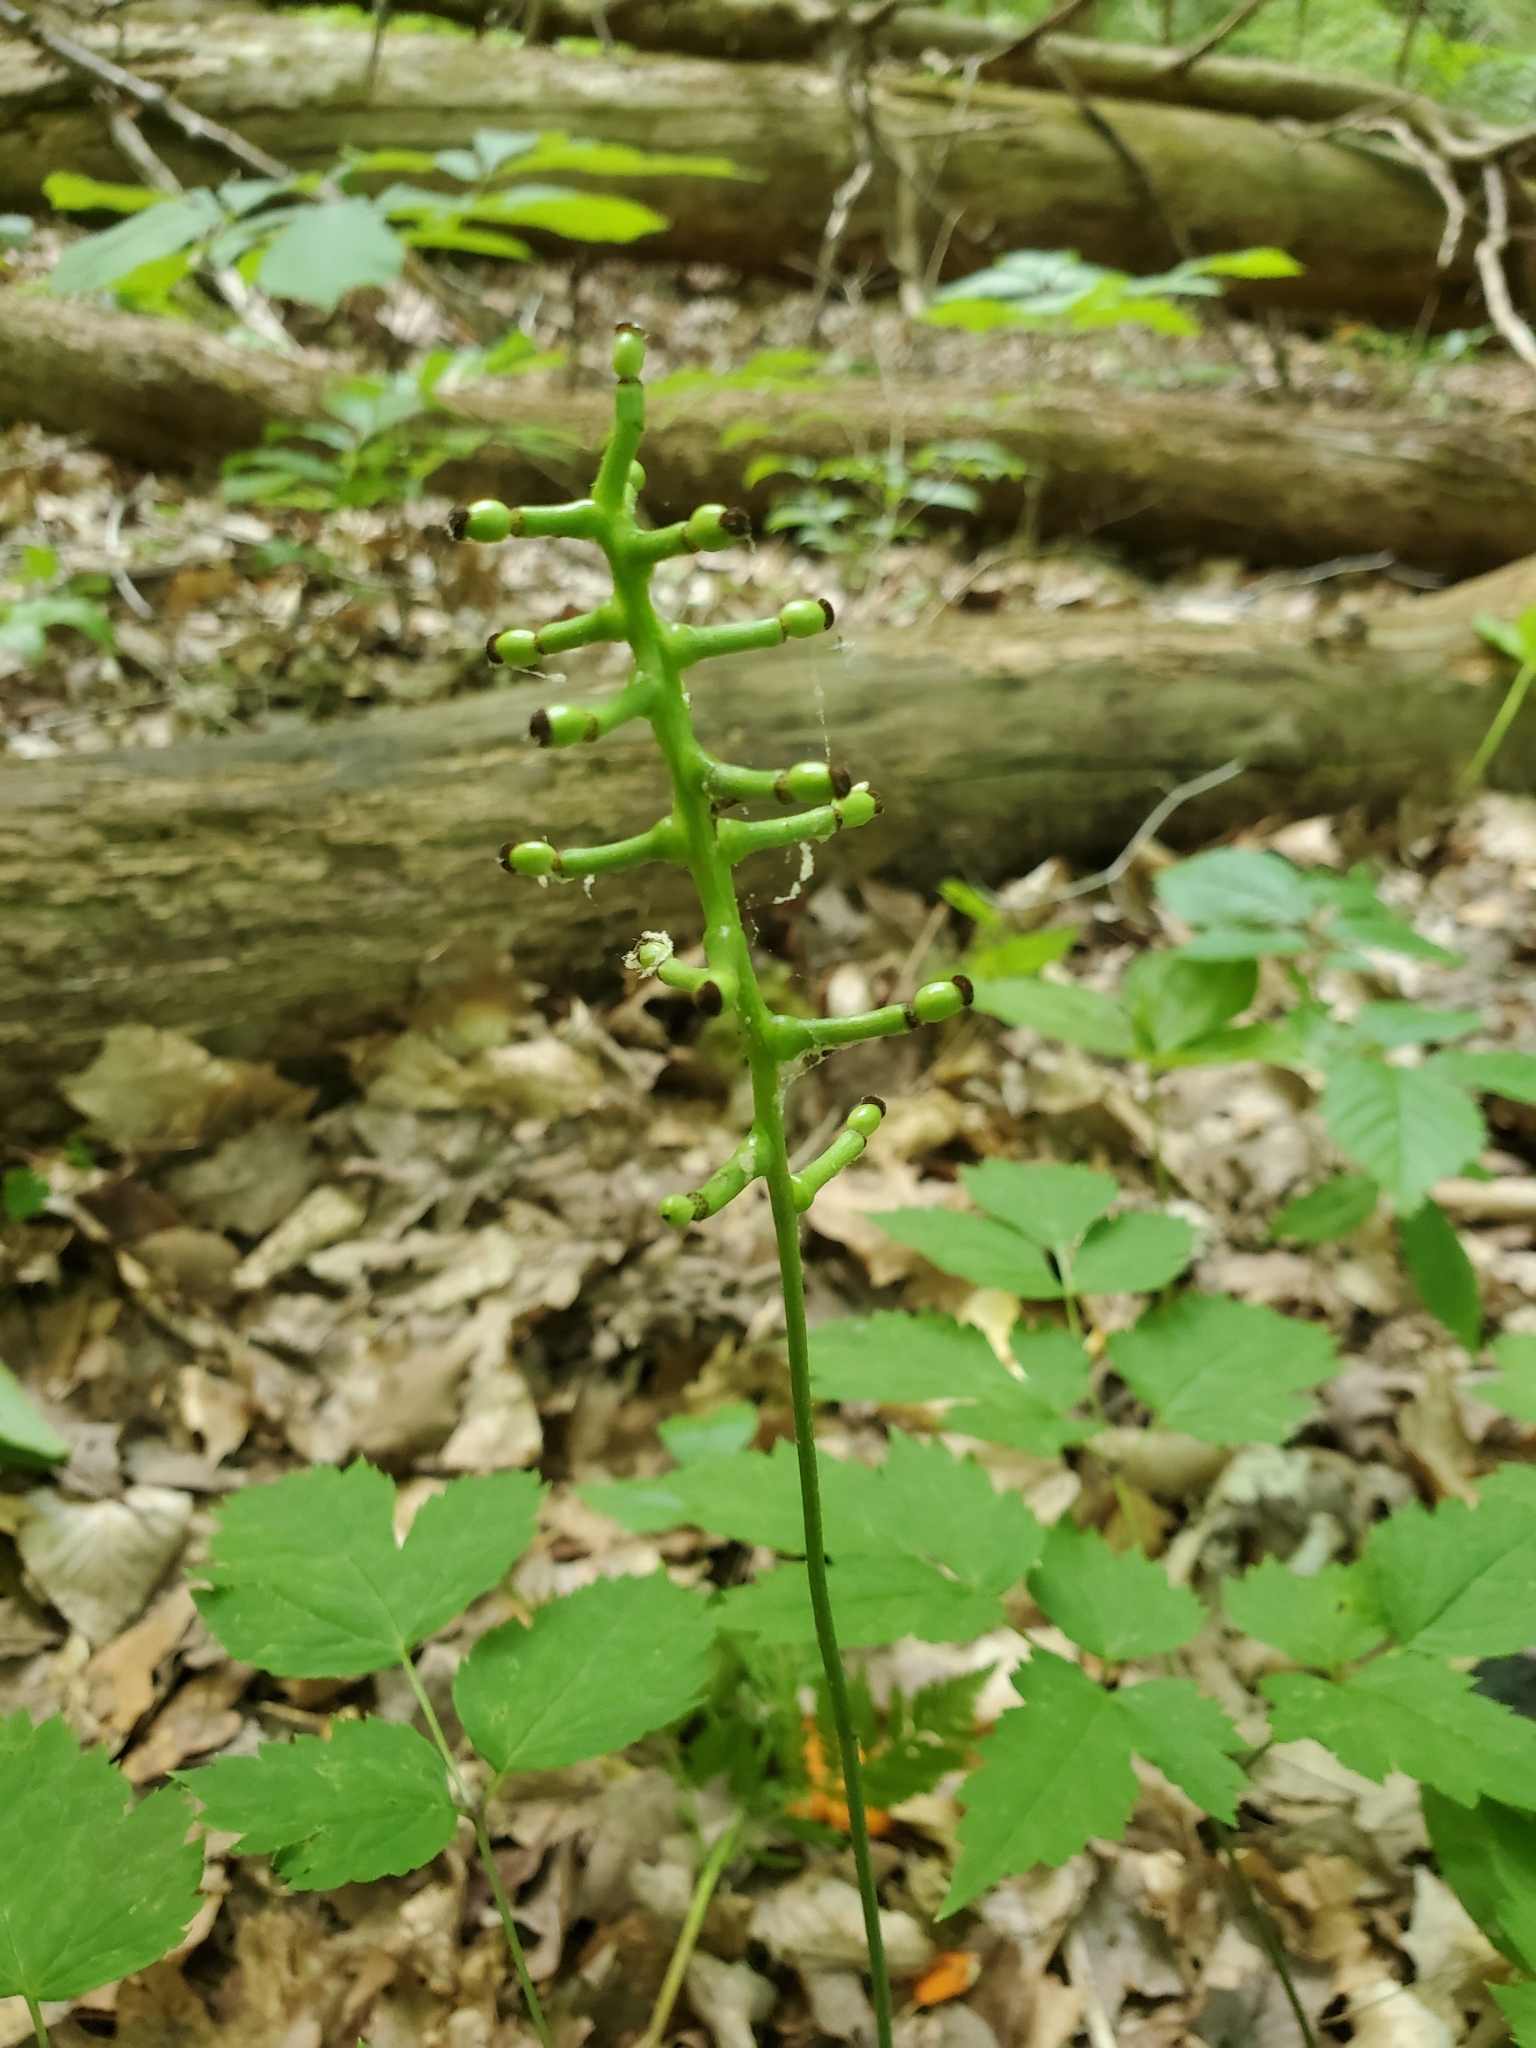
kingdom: Plantae
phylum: Tracheophyta
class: Magnoliopsida
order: Ranunculales
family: Ranunculaceae
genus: Actaea
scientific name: Actaea pachypoda
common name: Doll's-eyes
